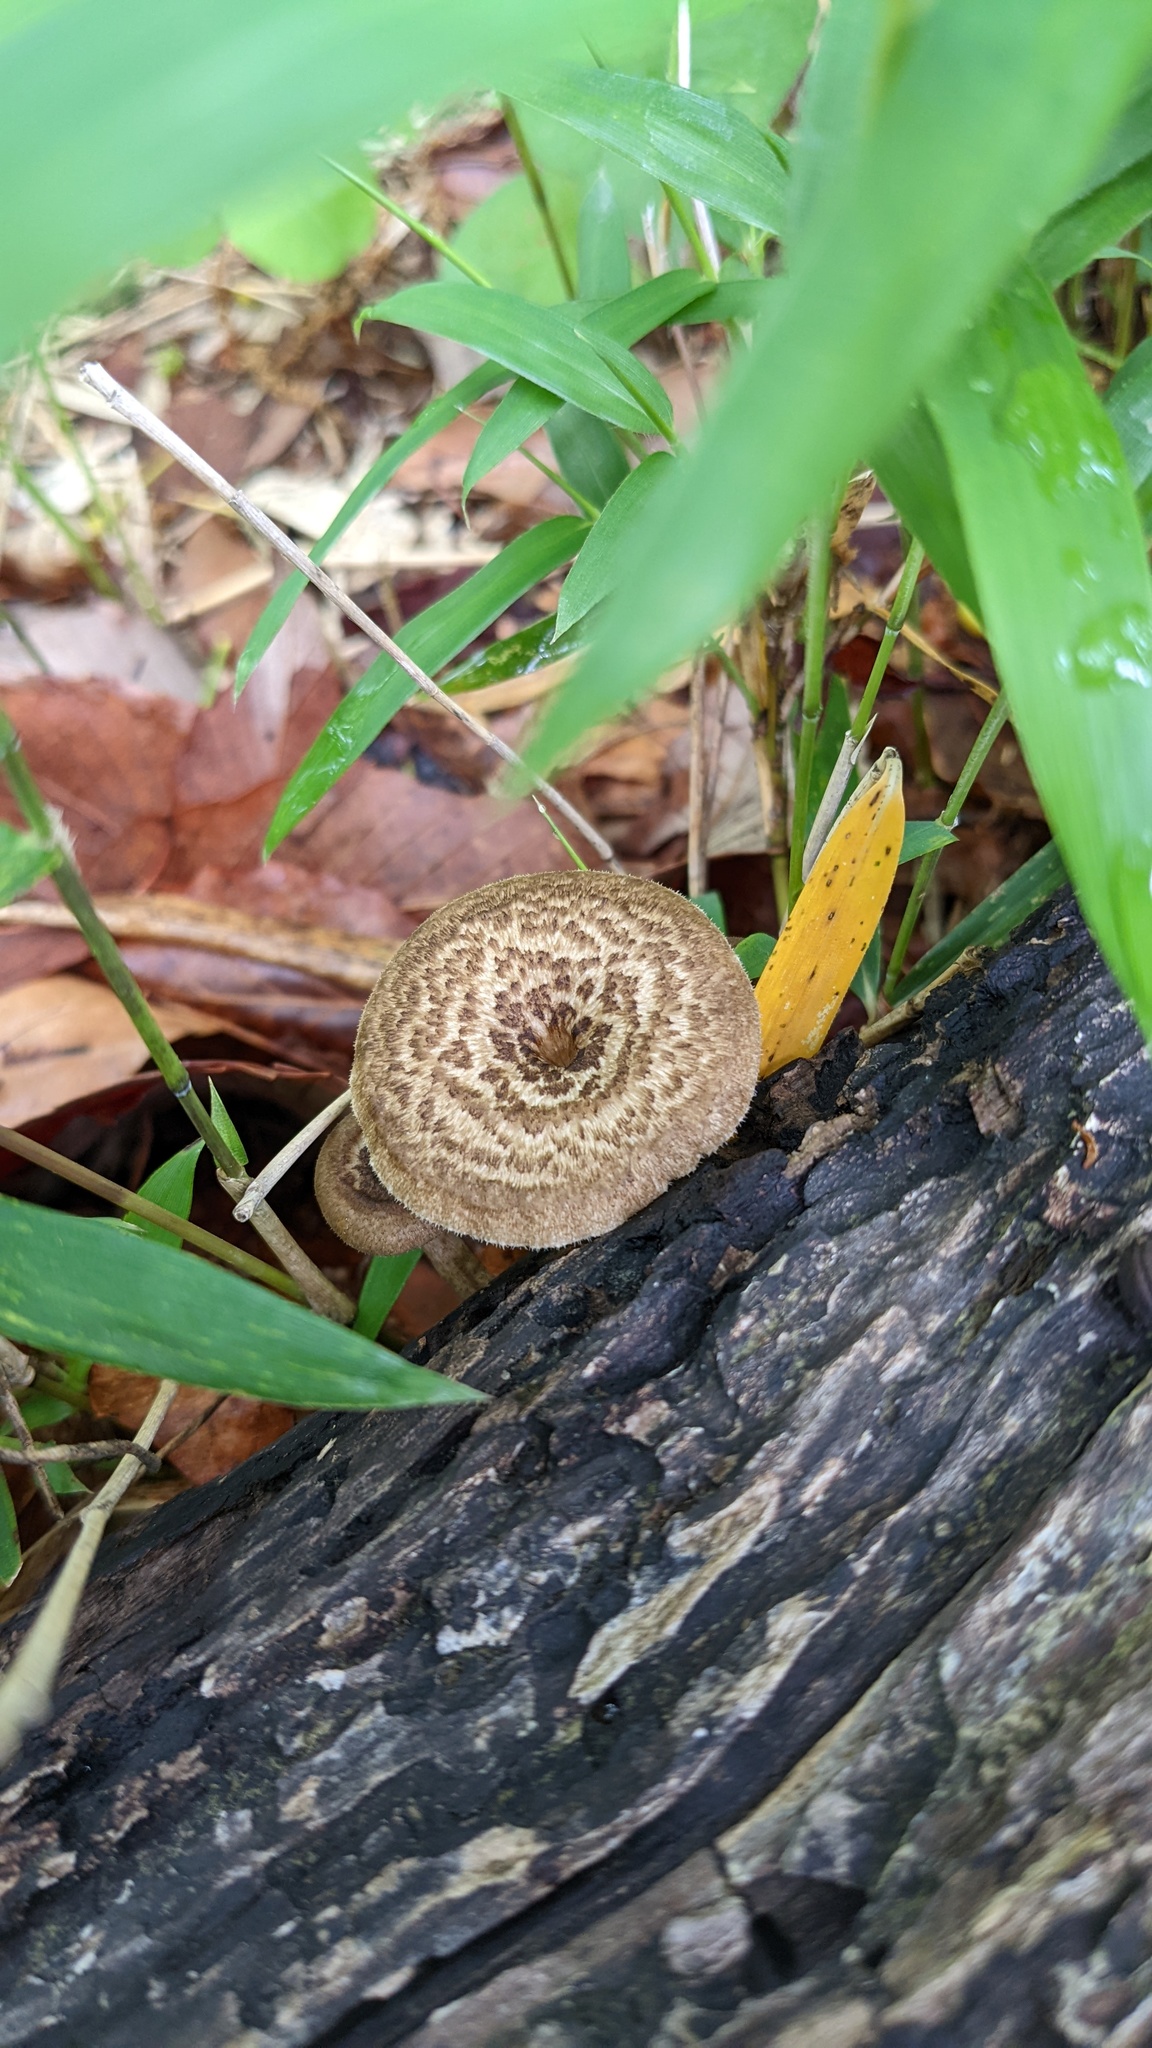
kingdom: Fungi
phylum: Basidiomycota
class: Agaricomycetes
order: Polyporales
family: Polyporaceae
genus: Lentinus
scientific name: Lentinus arcularius
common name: Spring polypore
